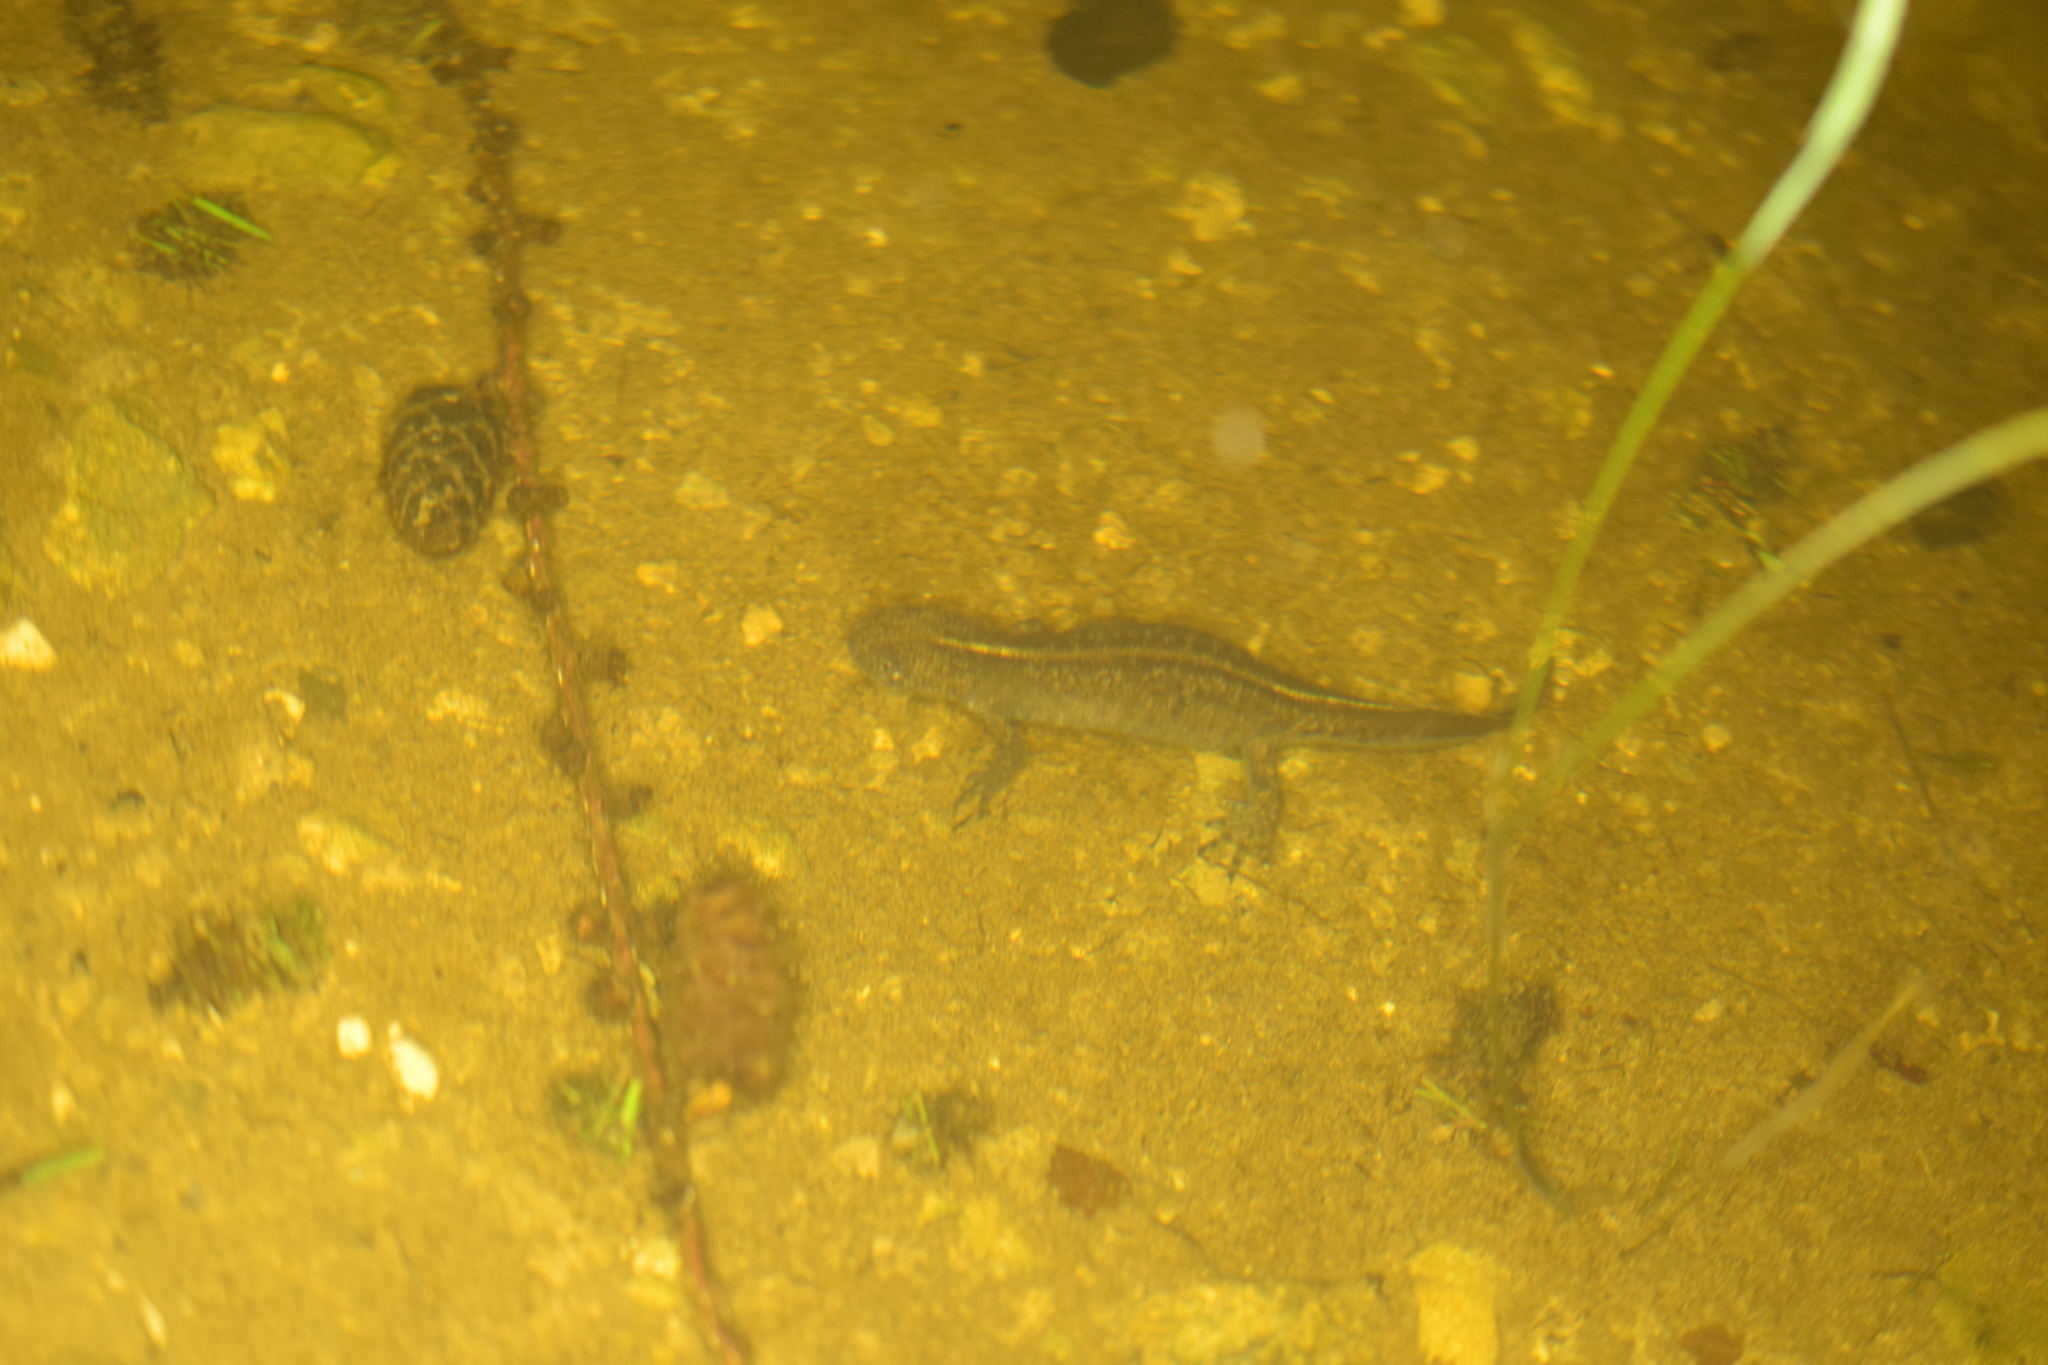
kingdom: Animalia
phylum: Chordata
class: Amphibia
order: Caudata
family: Salamandridae
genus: Triturus
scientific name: Triturus carnifex
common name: Italian crested newt
